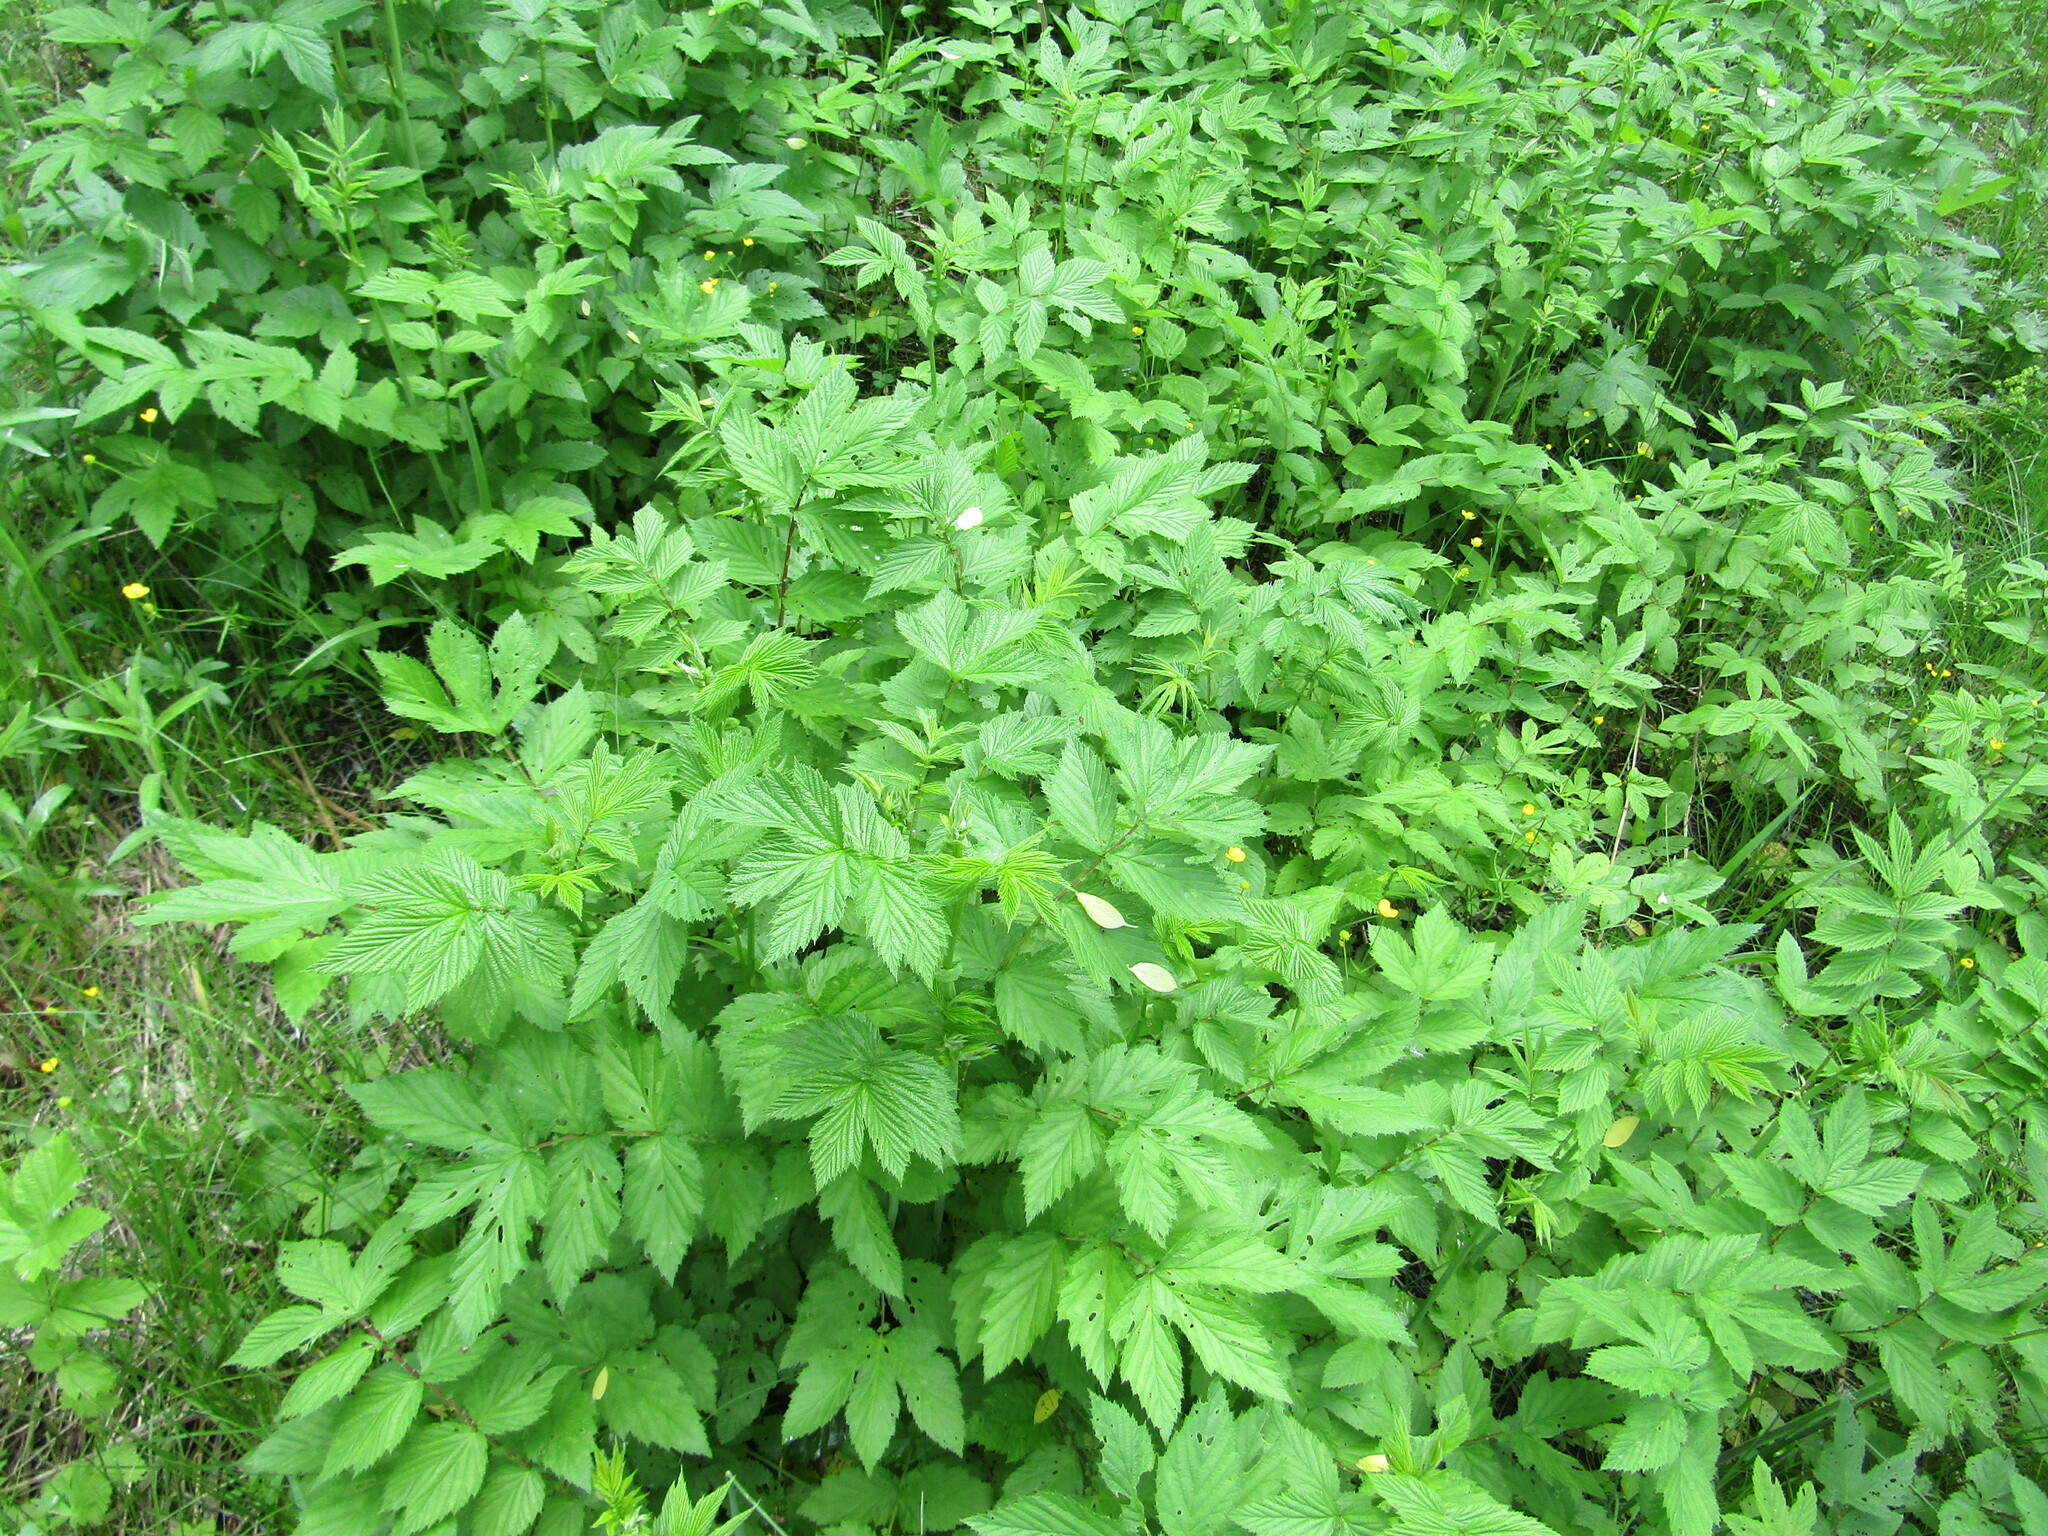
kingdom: Plantae
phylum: Tracheophyta
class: Magnoliopsida
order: Rosales
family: Rosaceae
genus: Filipendula
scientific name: Filipendula ulmaria
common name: Meadowsweet
